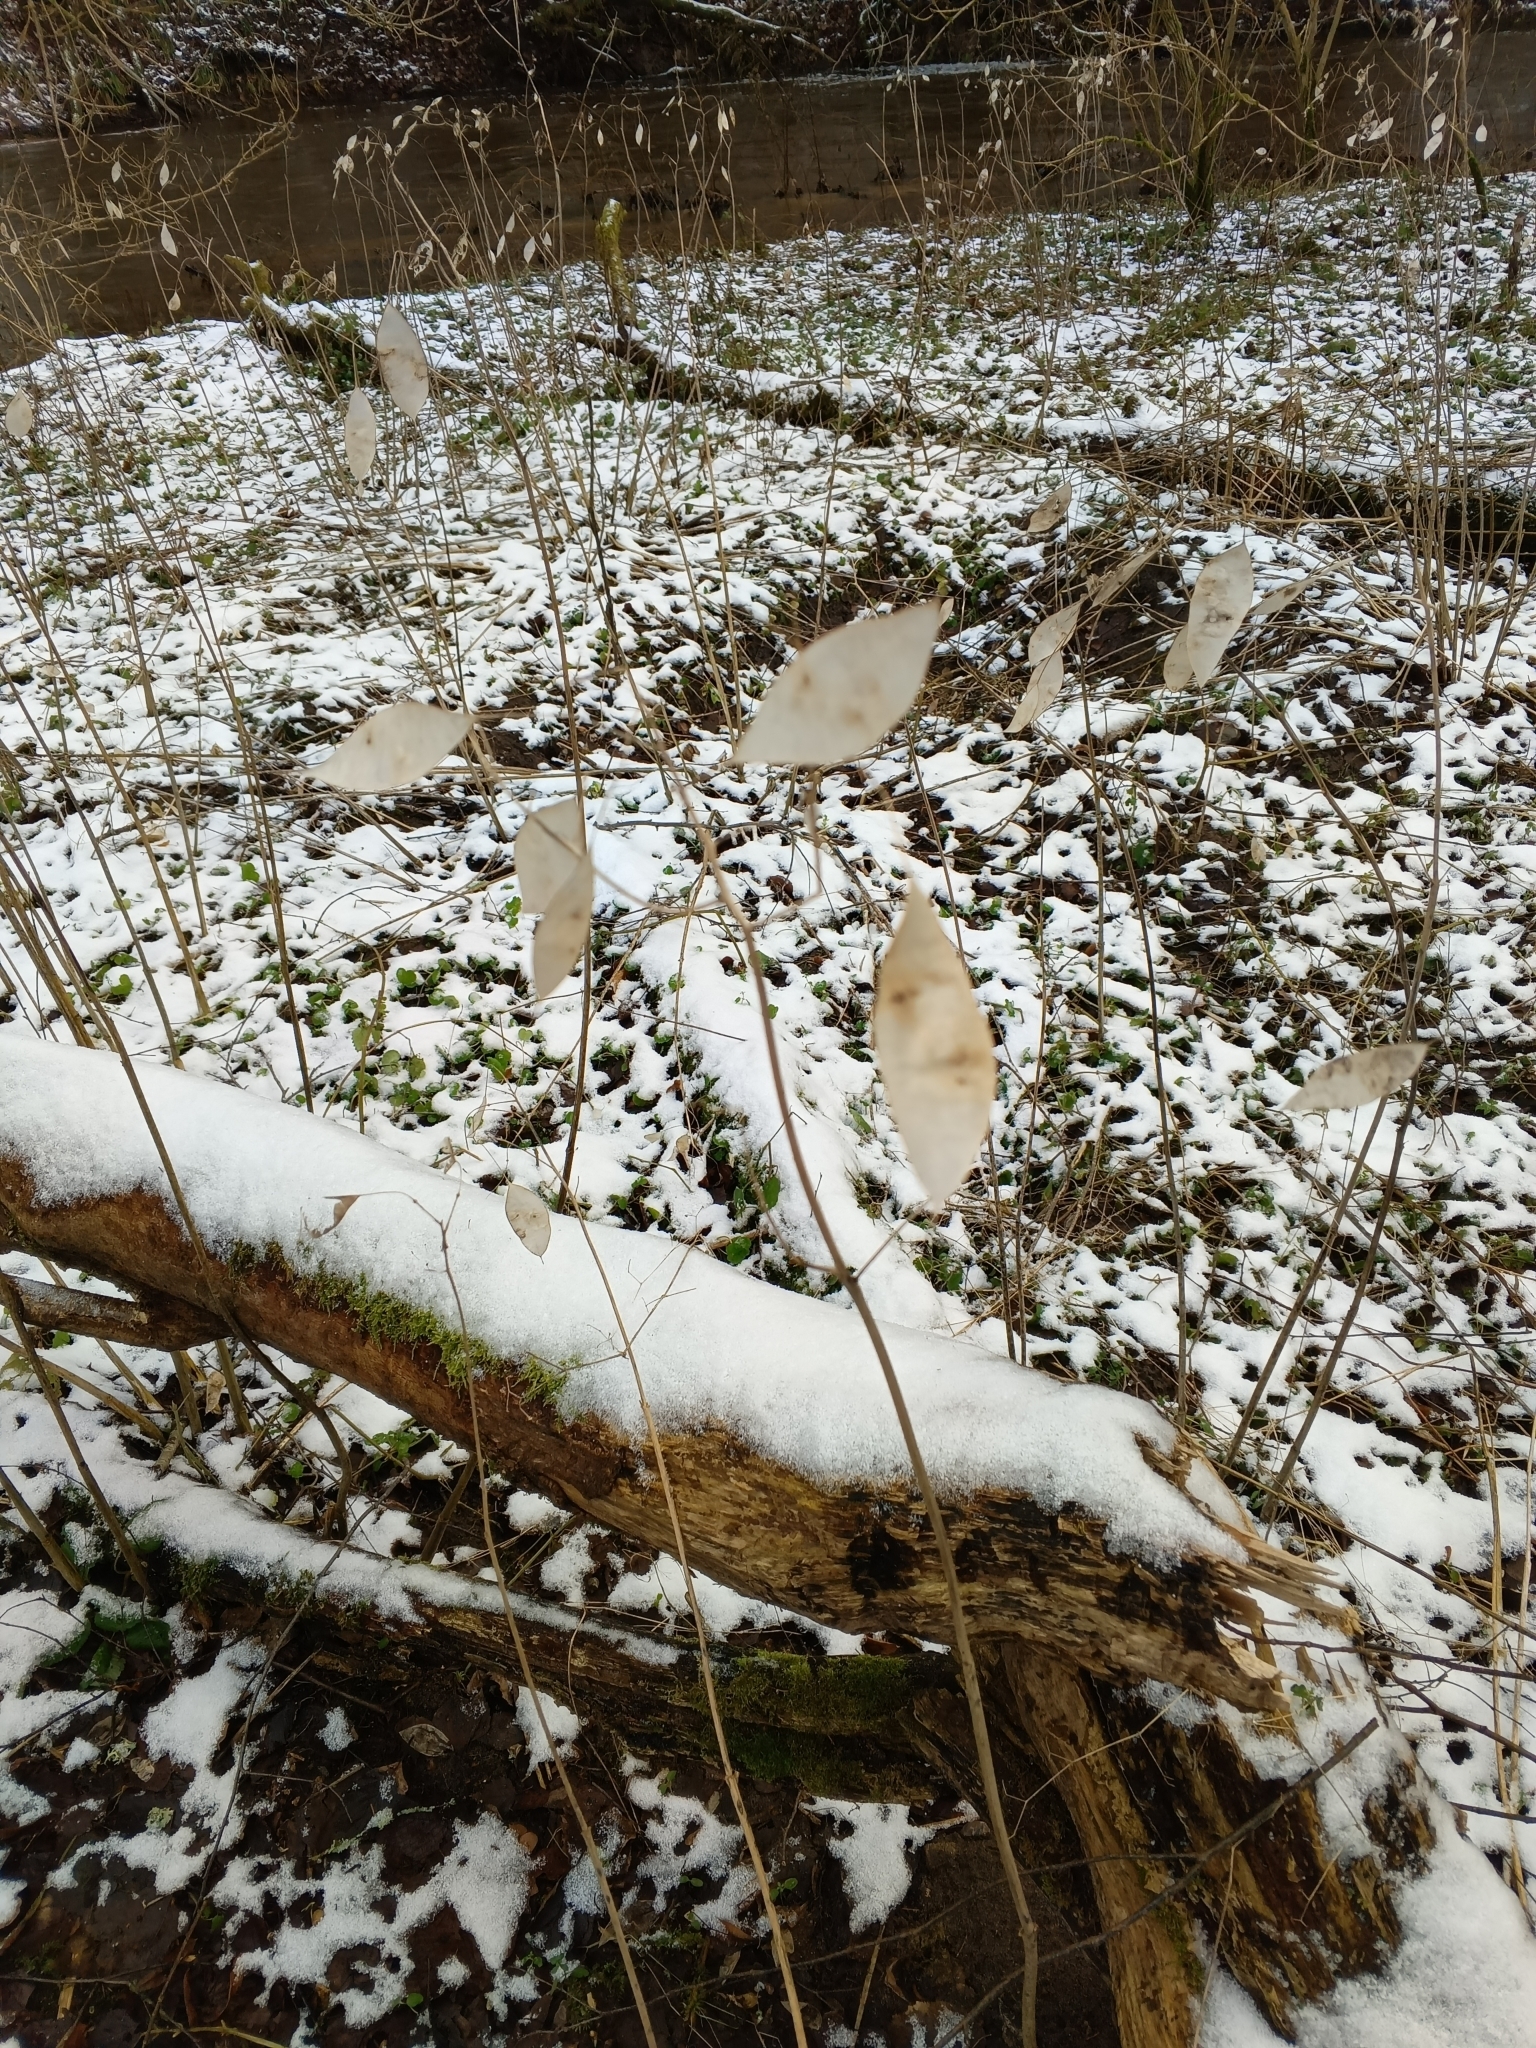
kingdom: Plantae
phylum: Tracheophyta
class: Magnoliopsida
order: Brassicales
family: Brassicaceae
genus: Lunaria
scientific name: Lunaria rediviva
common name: Perennial honesty
